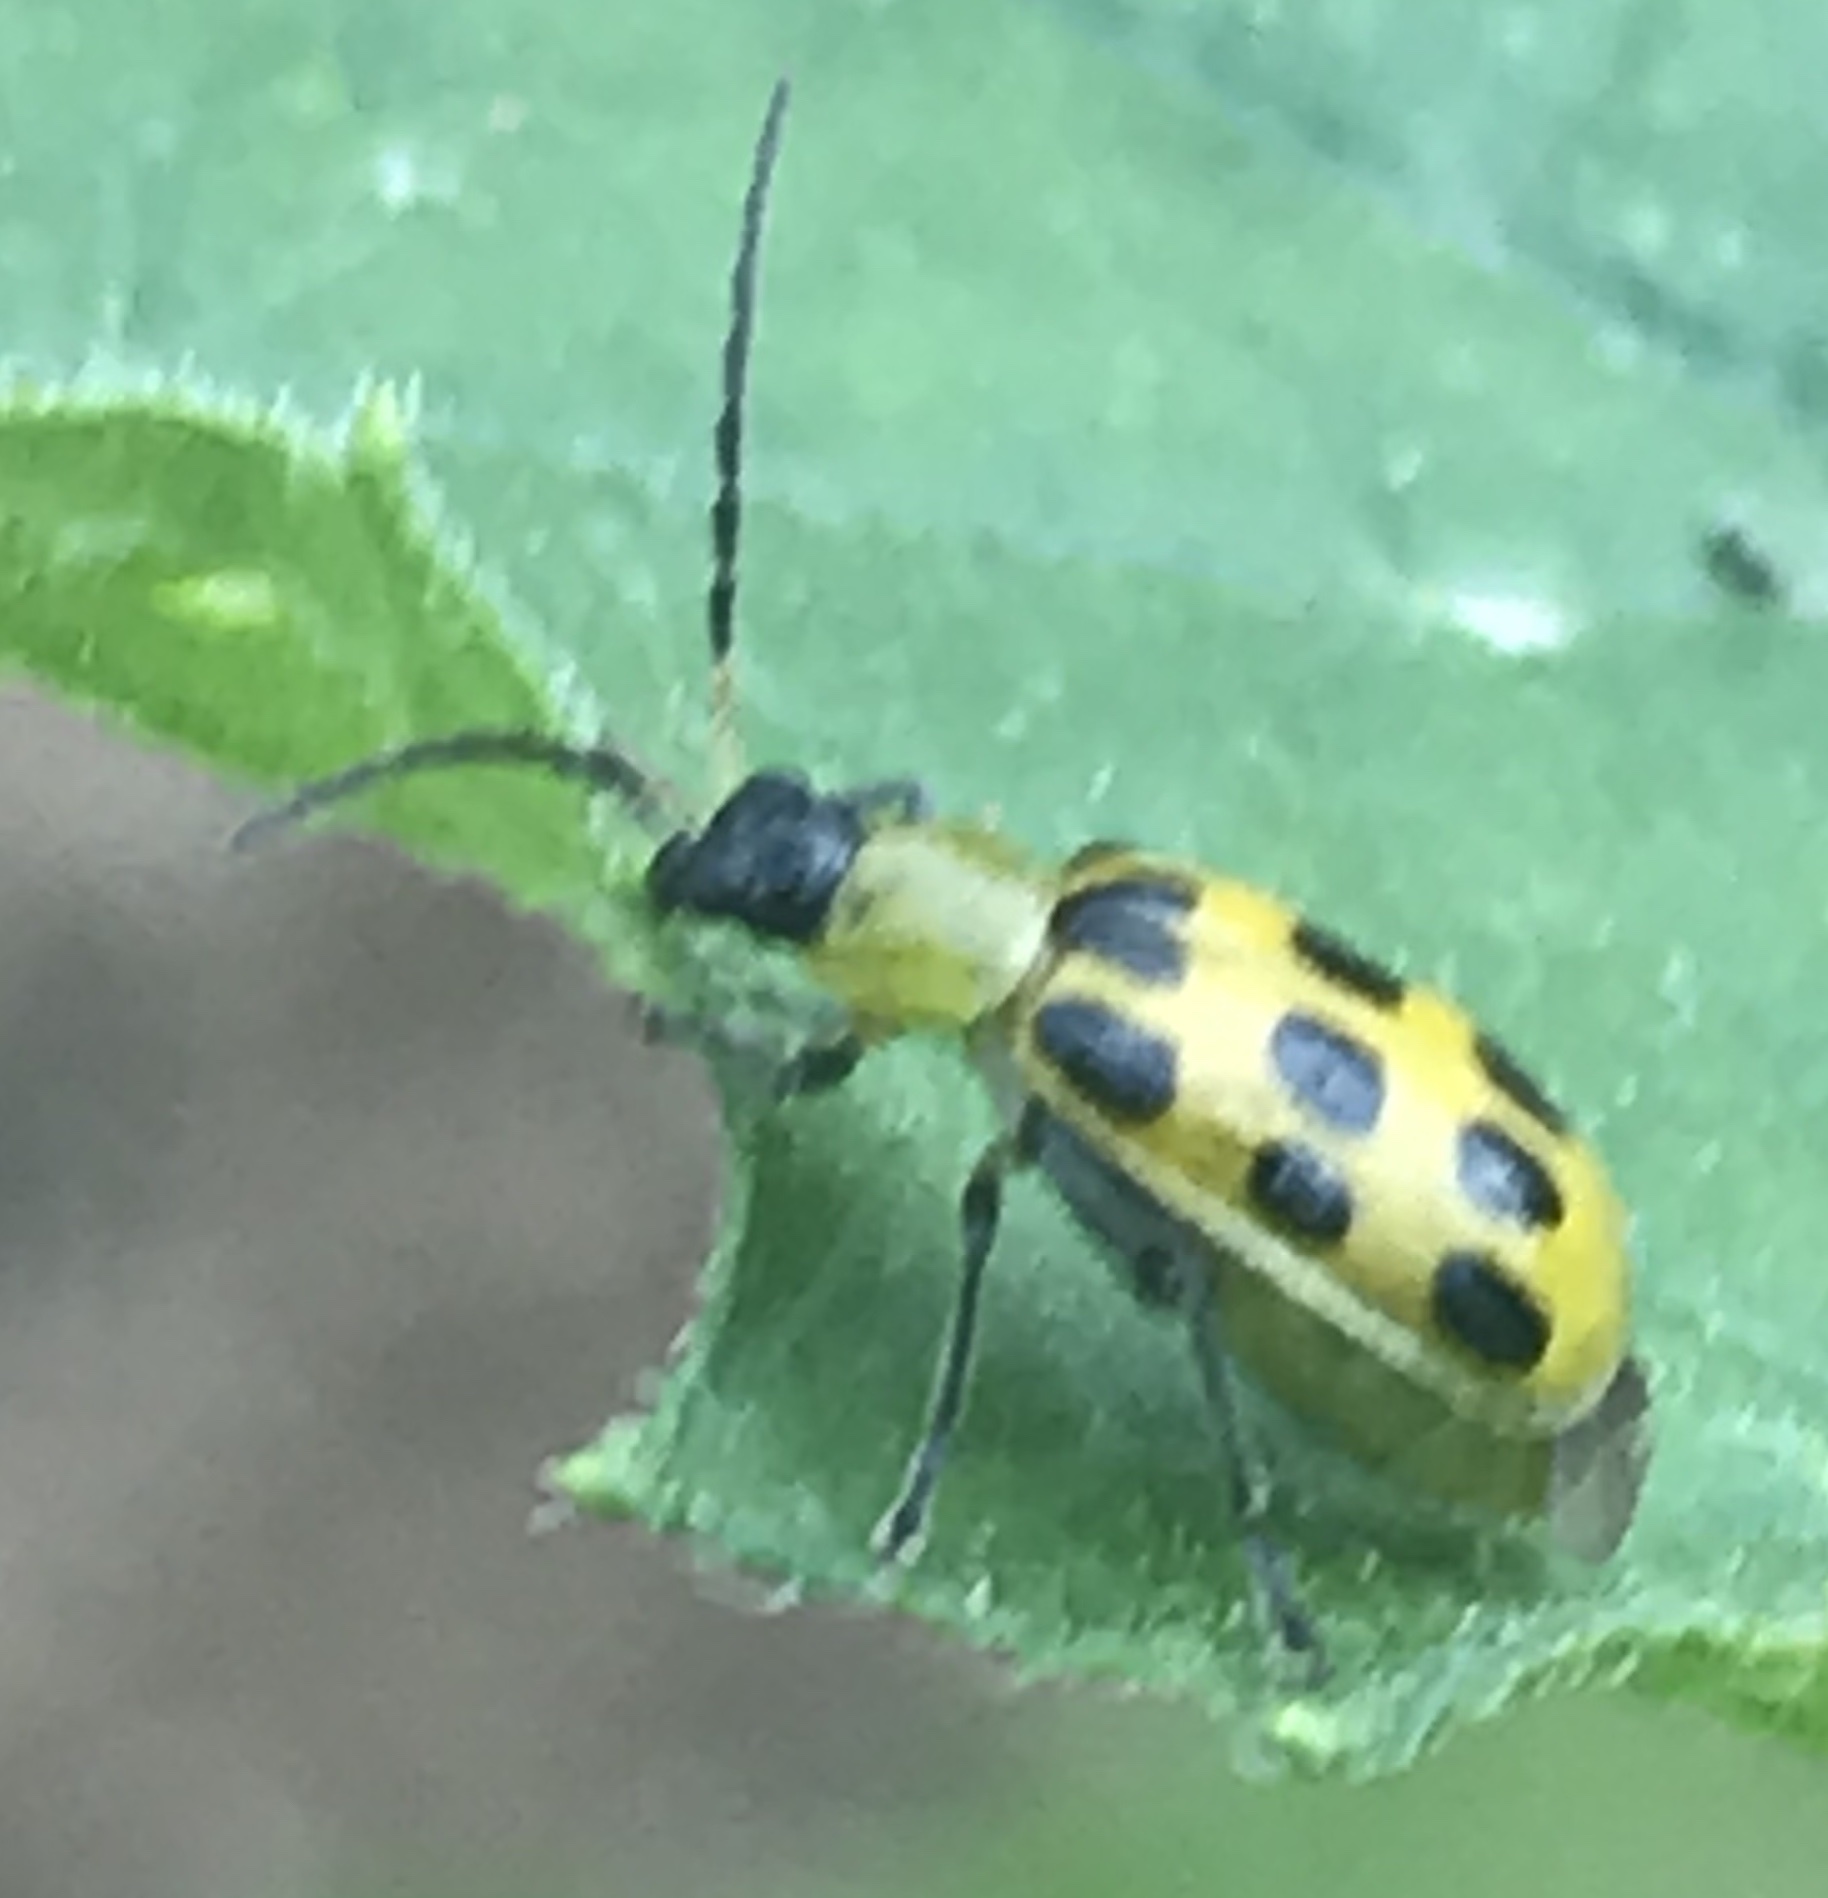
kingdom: Animalia
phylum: Arthropoda
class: Insecta
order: Coleoptera
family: Chrysomelidae
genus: Diabrotica
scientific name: Diabrotica undecimpunctata
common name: Spotted cucumber beetle
